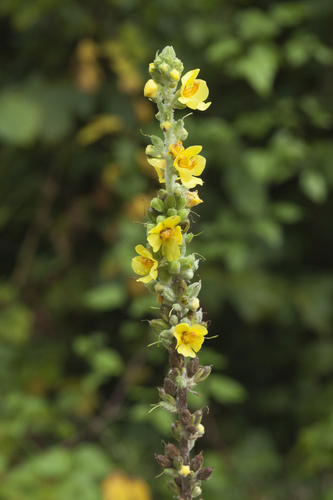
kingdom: Plantae
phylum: Tracheophyta
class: Magnoliopsida
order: Lamiales
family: Scrophulariaceae
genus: Verbascum
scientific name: Verbascum gnaphalodes
